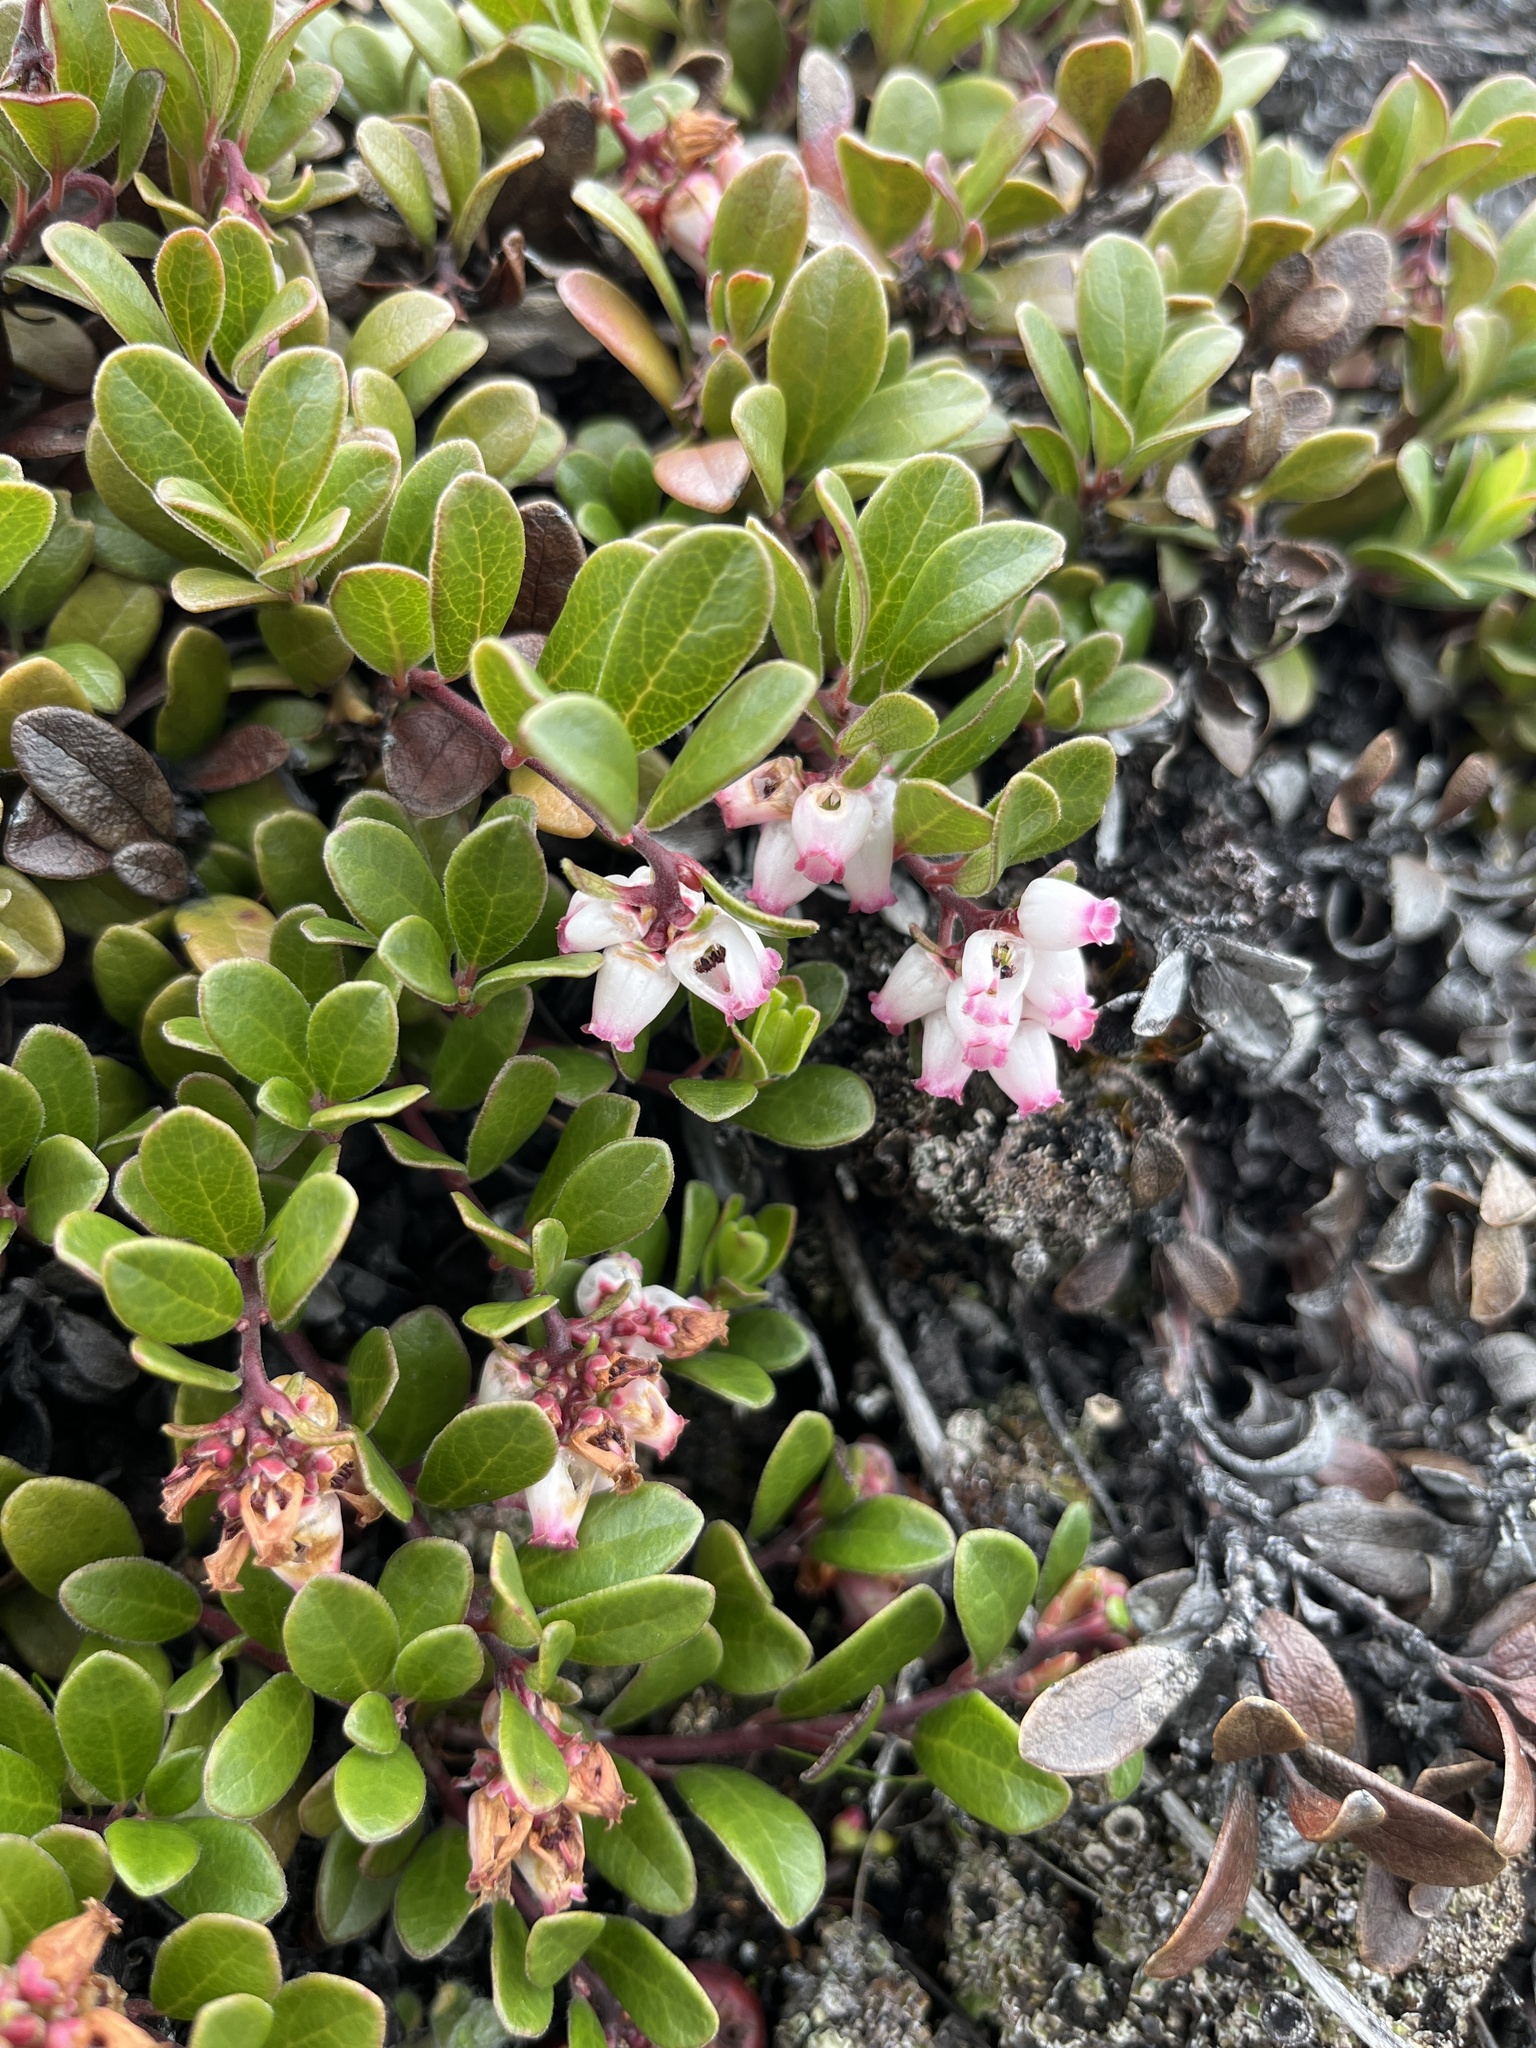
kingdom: Plantae
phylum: Tracheophyta
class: Magnoliopsida
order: Ericales
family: Ericaceae
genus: Arctostaphylos
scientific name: Arctostaphylos uva-ursi
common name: Bearberry
